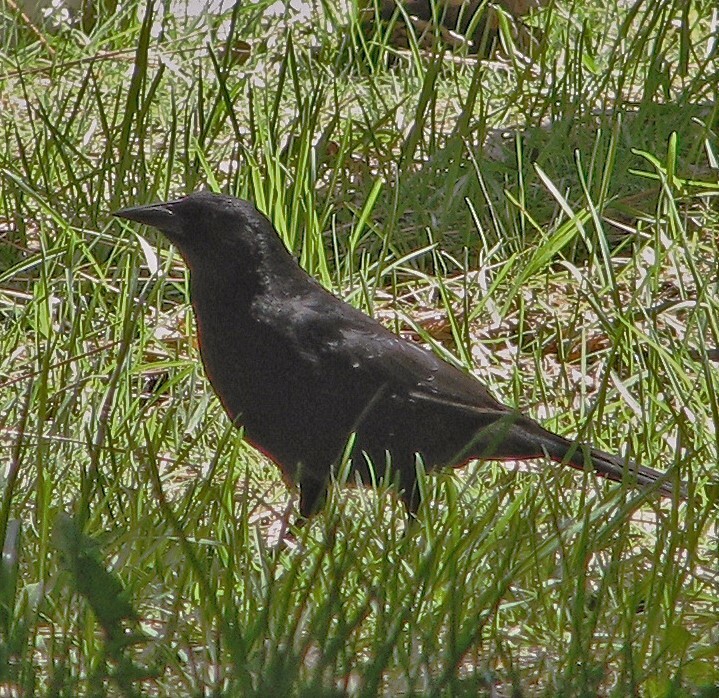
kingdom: Animalia
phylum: Chordata
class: Aves
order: Passeriformes
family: Icteridae
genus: Curaeus
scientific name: Curaeus curaeus
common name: Austral blackbird
